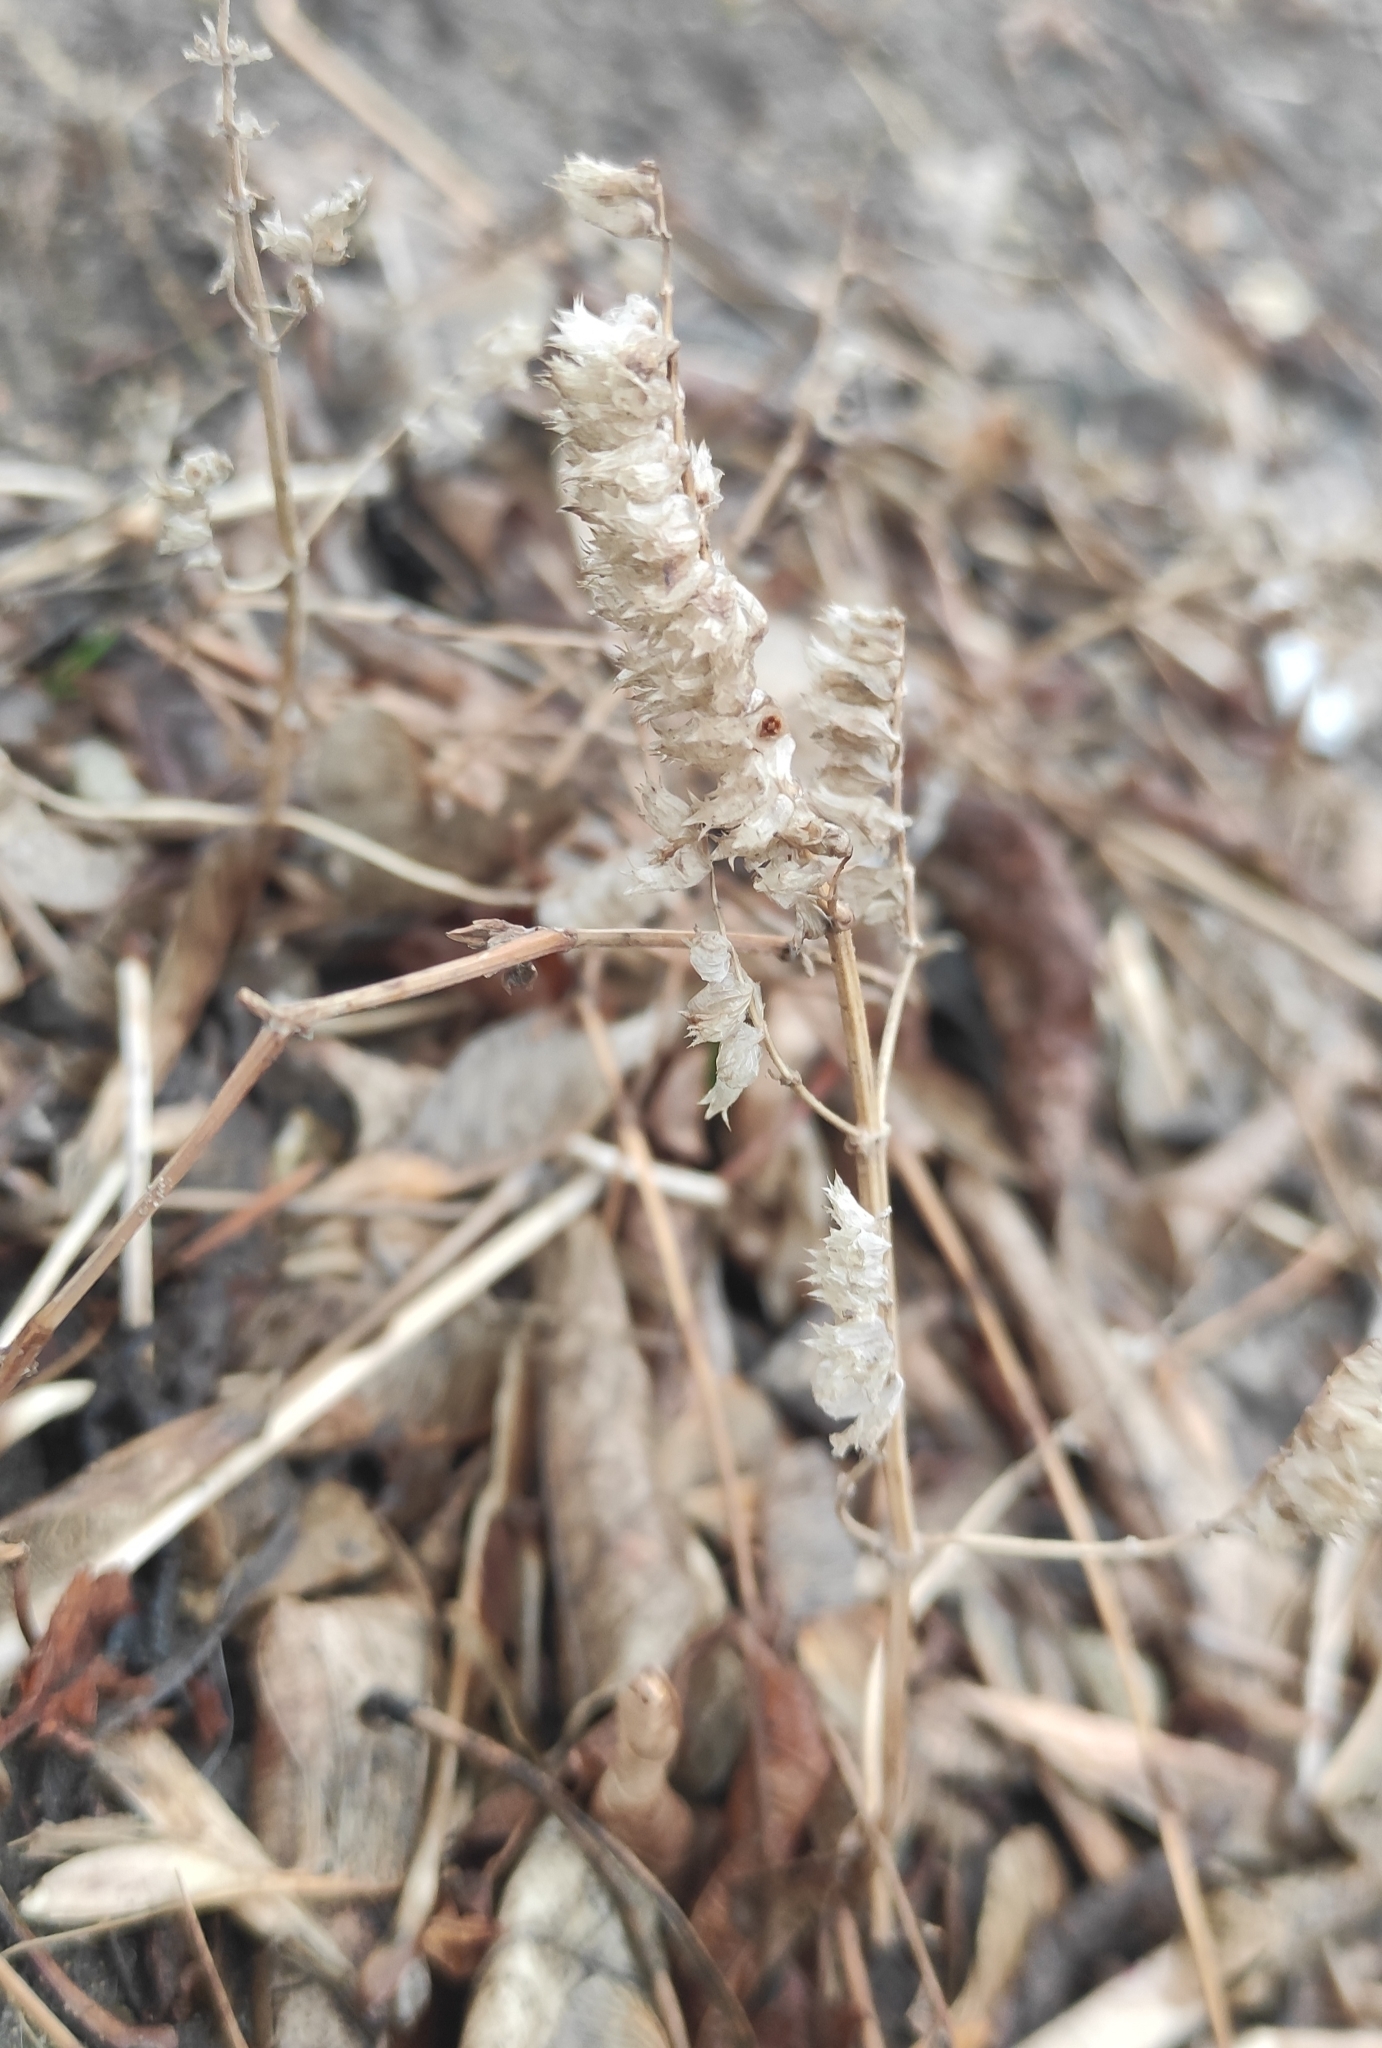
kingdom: Plantae
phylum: Tracheophyta
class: Magnoliopsida
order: Lamiales
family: Lamiaceae
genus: Elsholtzia
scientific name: Elsholtzia ciliata
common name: Ciliate elsholtzia
